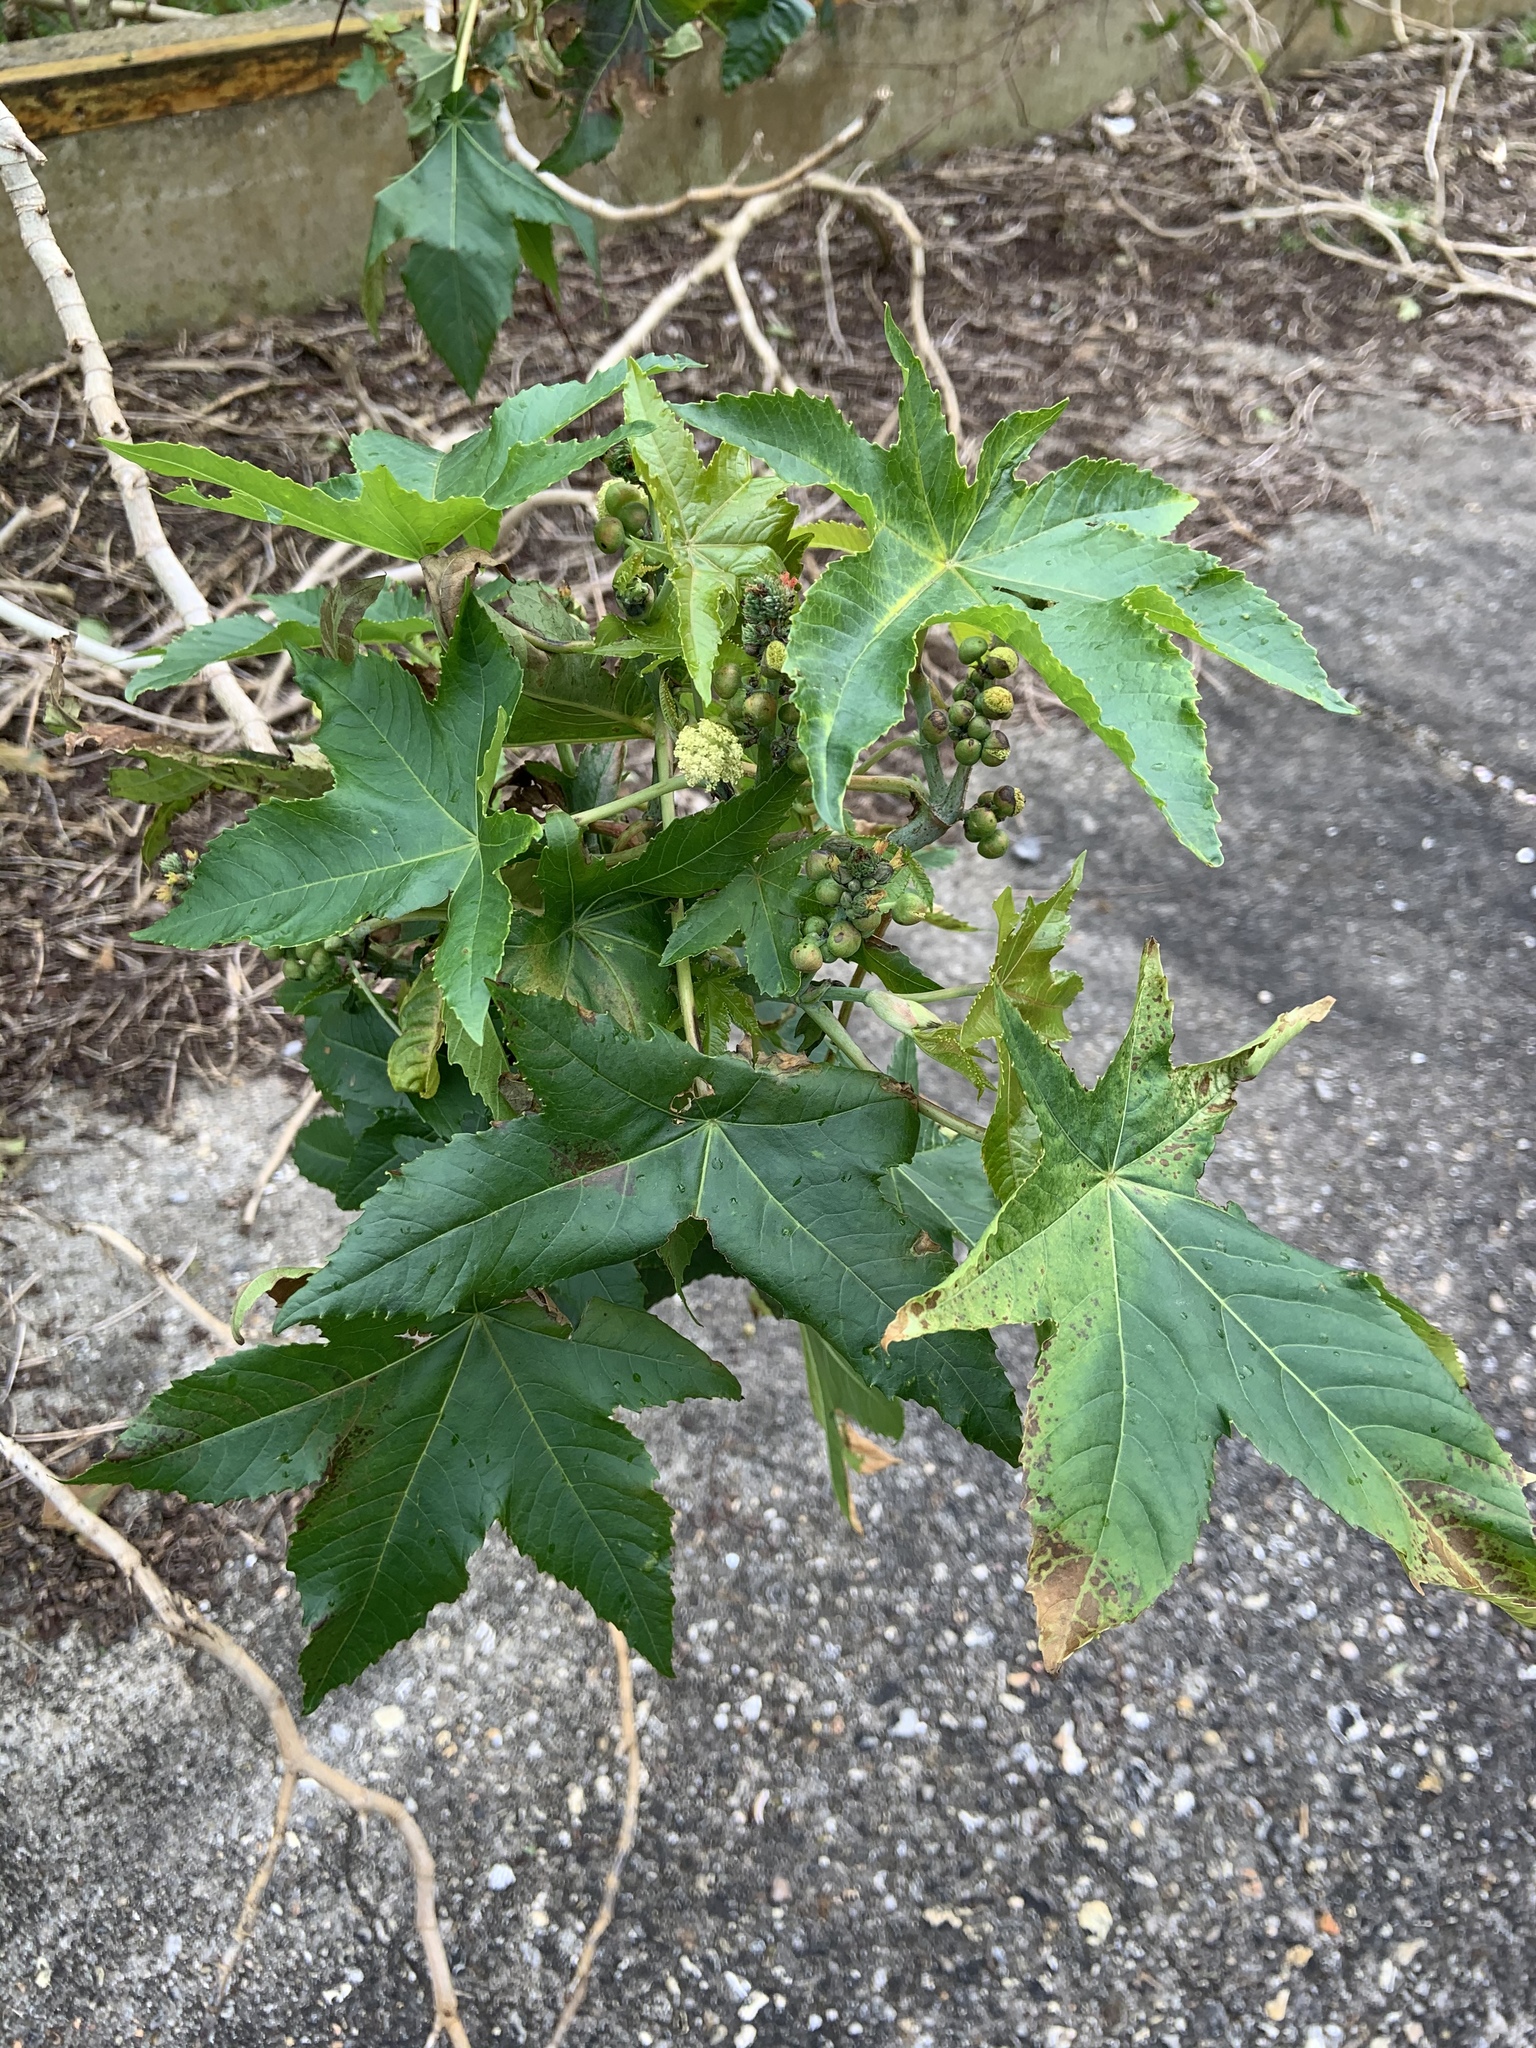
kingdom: Plantae
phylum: Tracheophyta
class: Magnoliopsida
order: Malpighiales
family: Euphorbiaceae
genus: Ricinus
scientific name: Ricinus communis
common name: Castor-oil-plant
